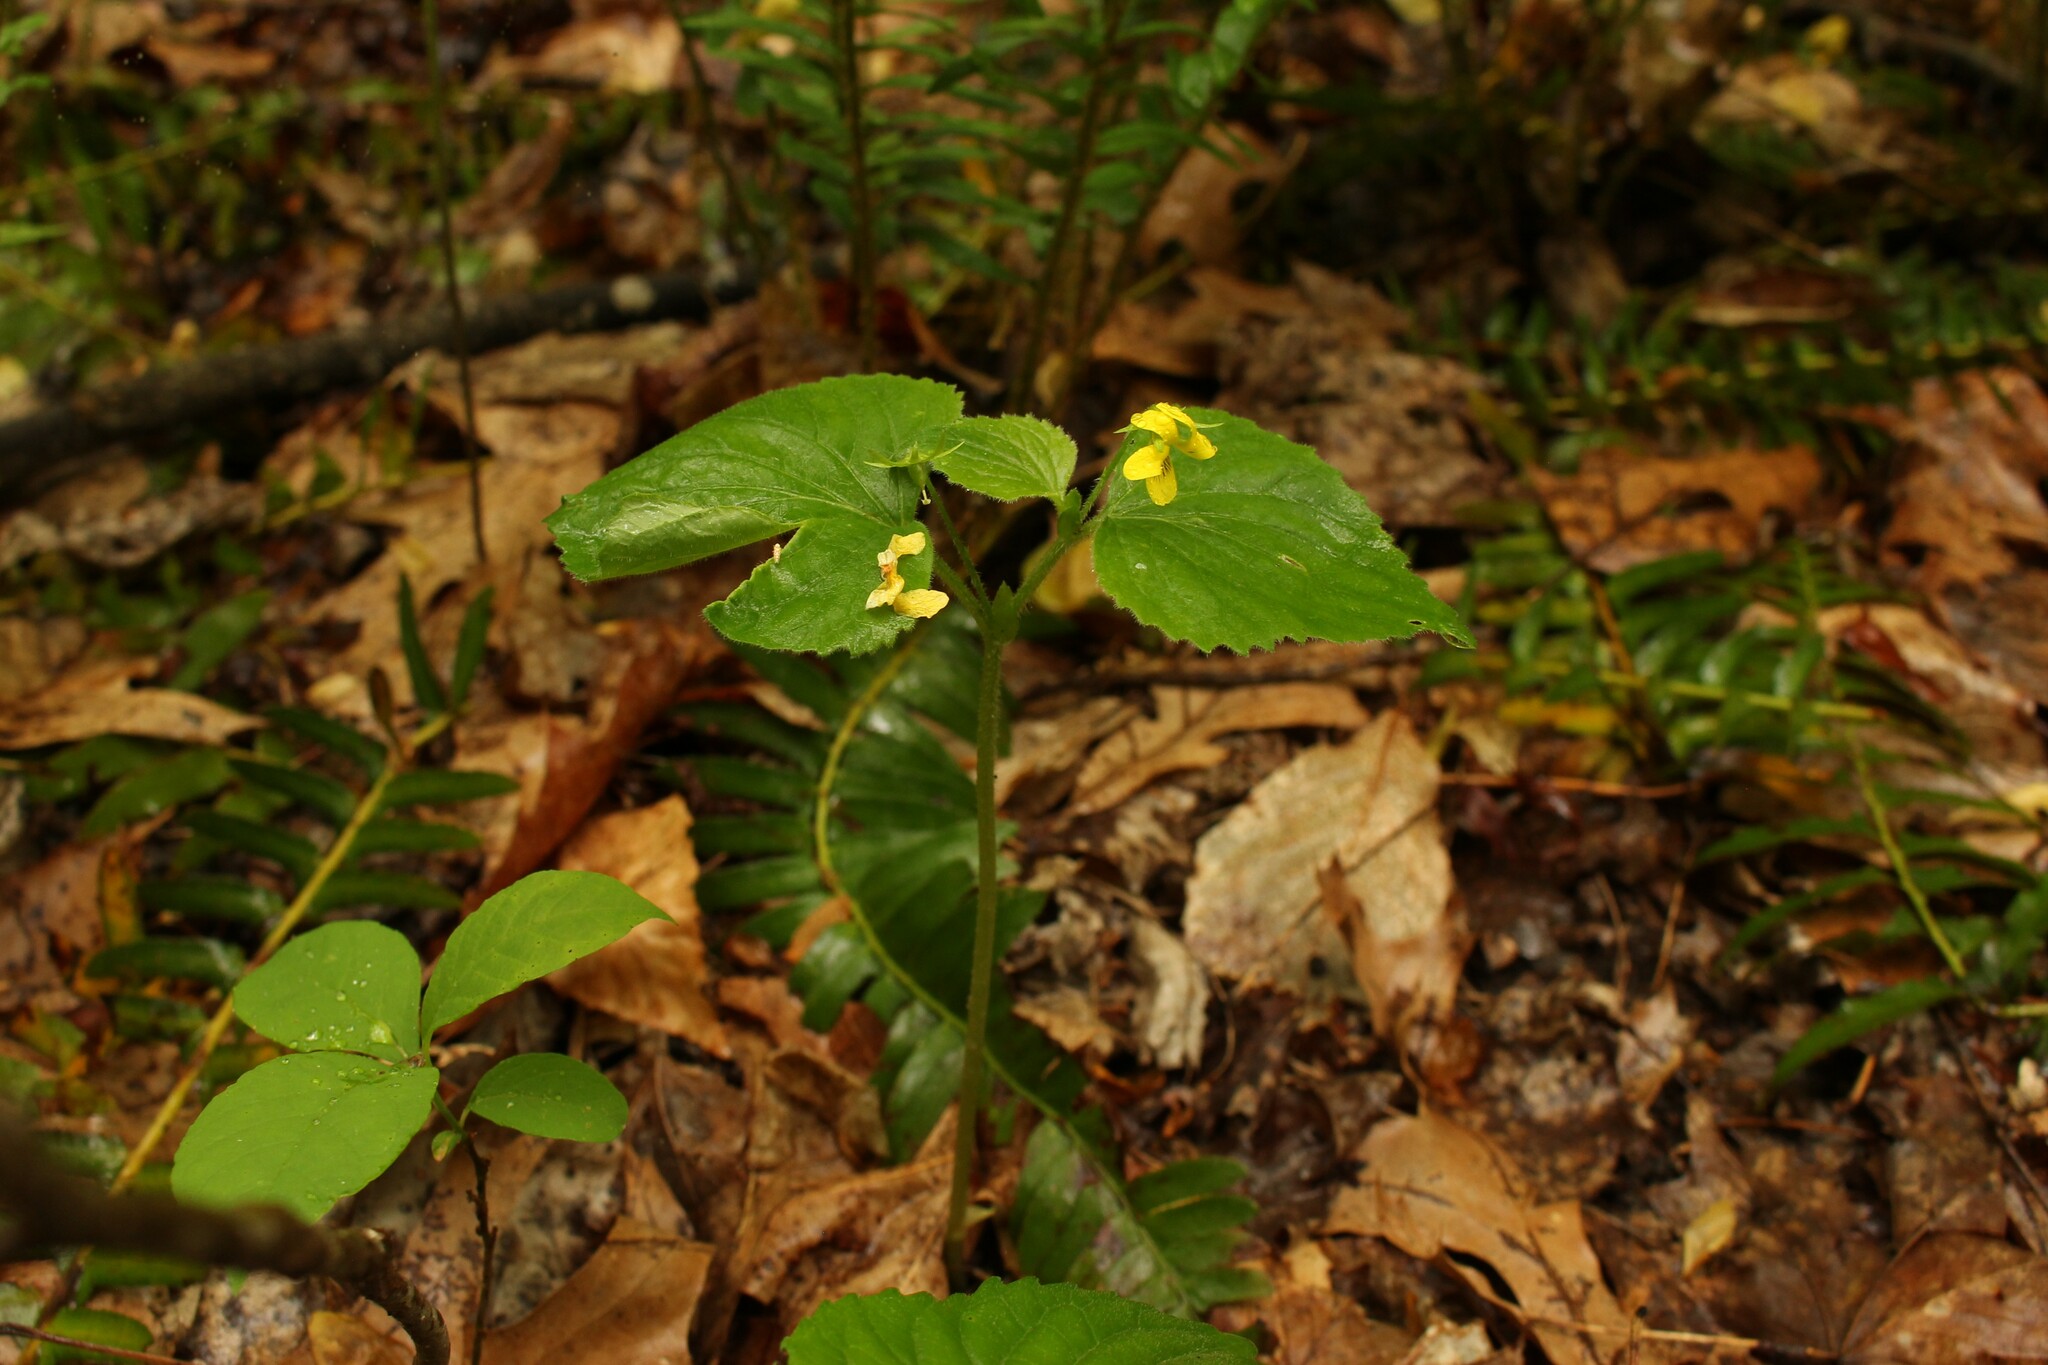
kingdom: Plantae
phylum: Tracheophyta
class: Magnoliopsida
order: Malpighiales
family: Violaceae
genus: Viola
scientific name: Viola pubescens
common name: Yellow forest violet
